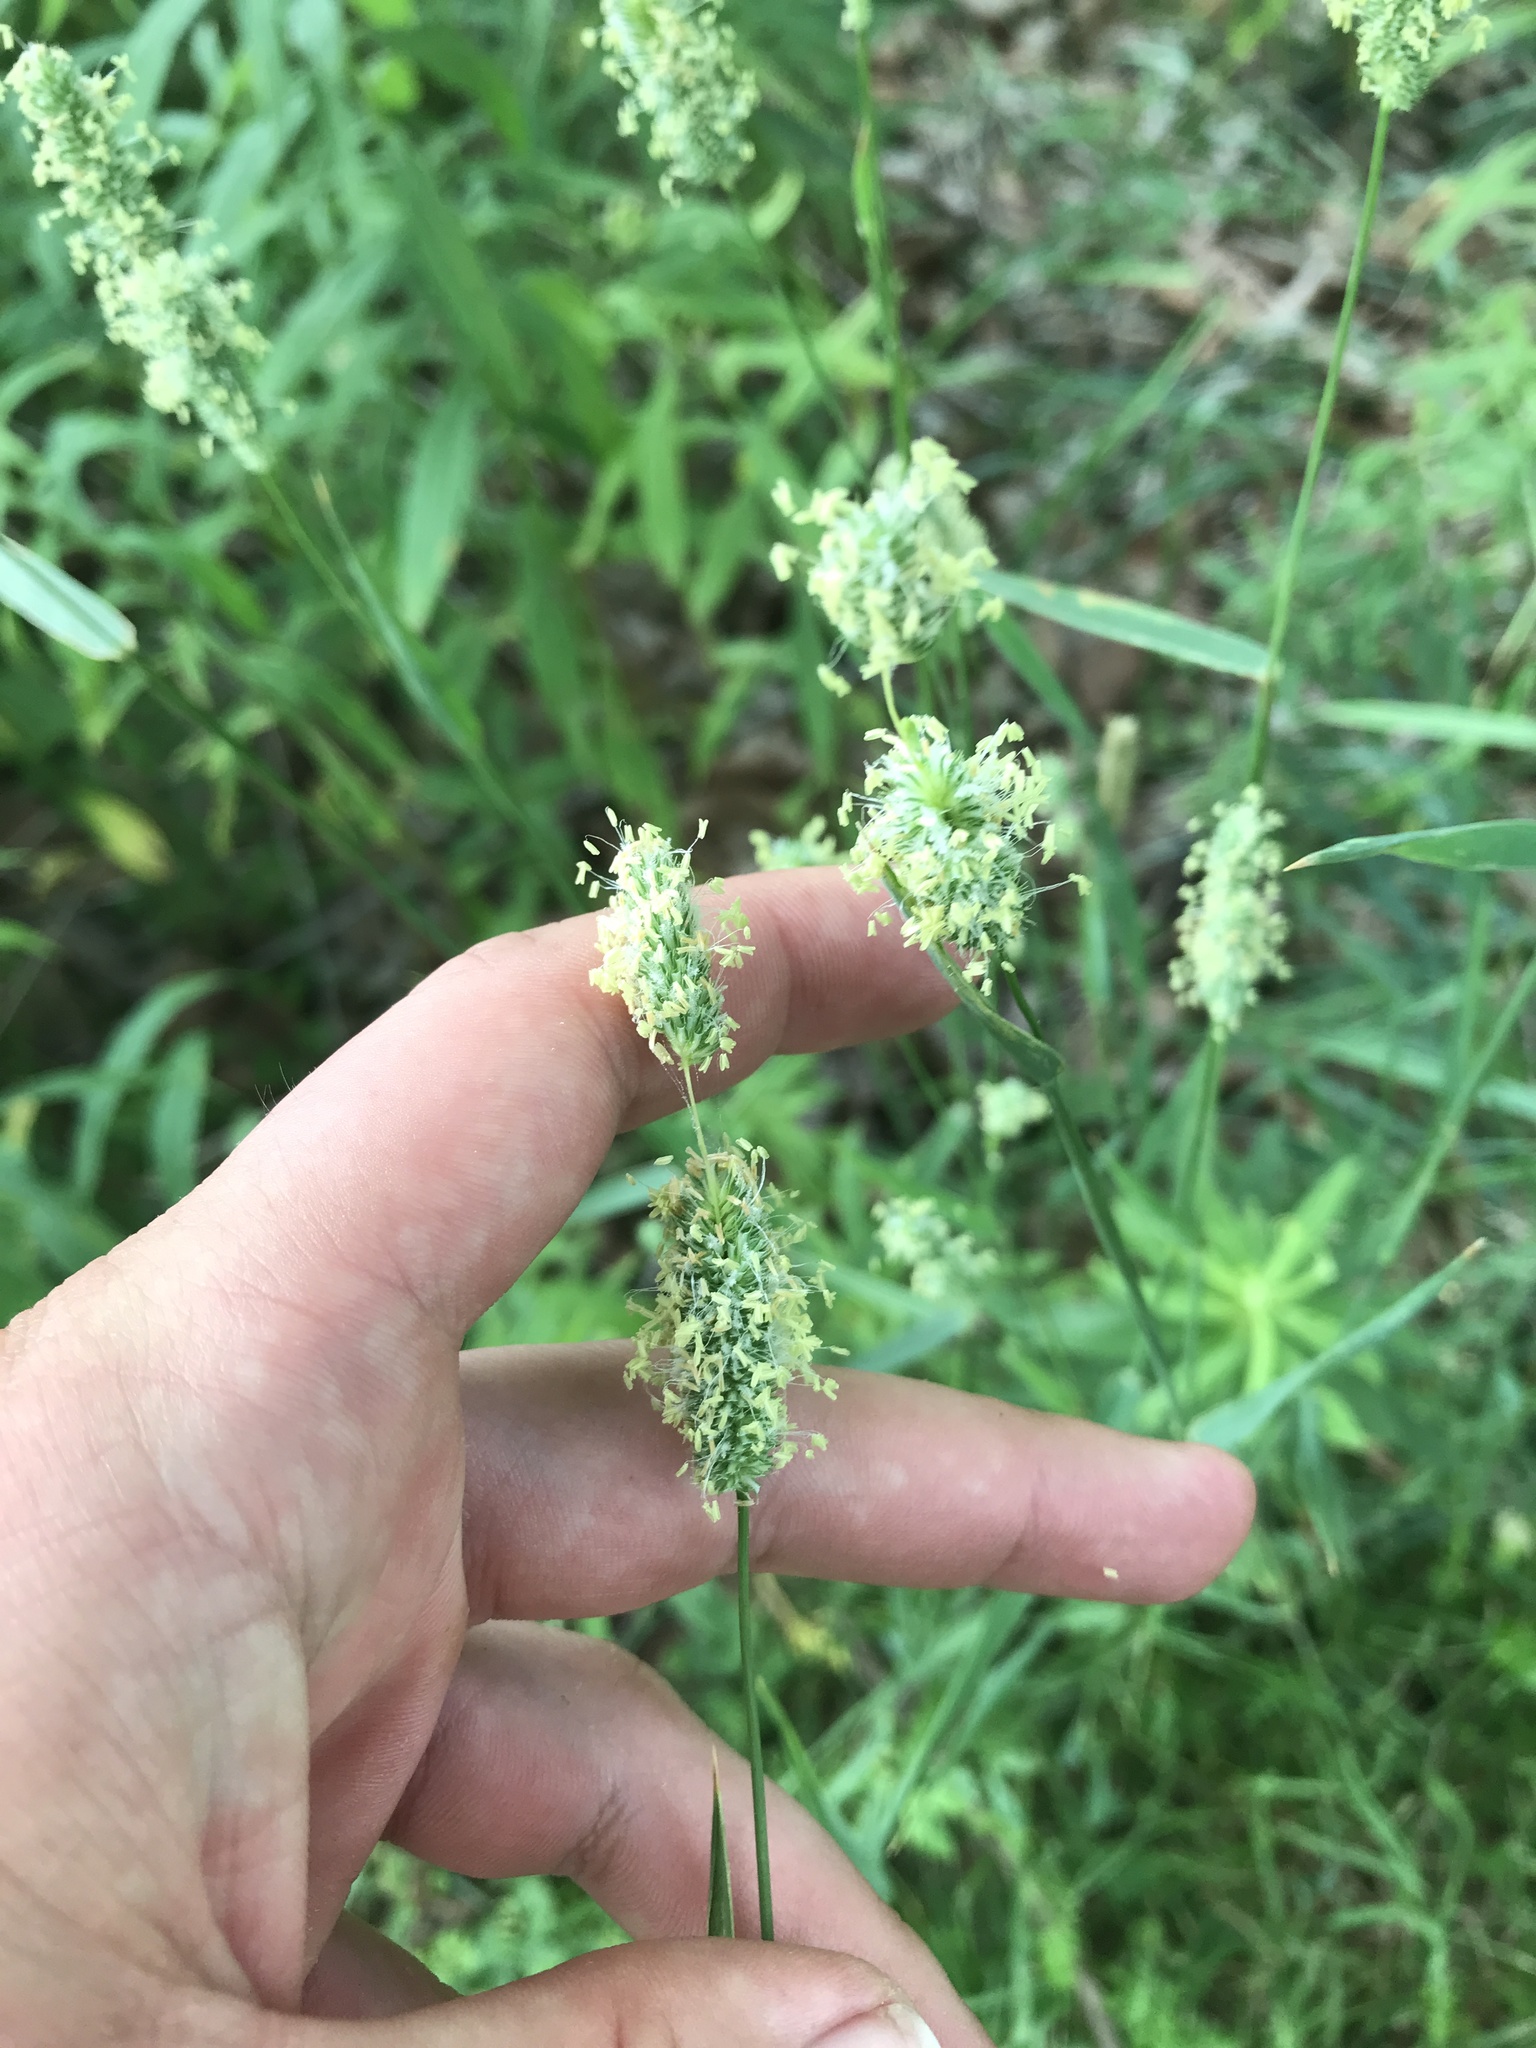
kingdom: Plantae
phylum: Tracheophyta
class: Liliopsida
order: Poales
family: Poaceae
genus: Dactylis
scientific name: Dactylis glomerata
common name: Orchardgrass
